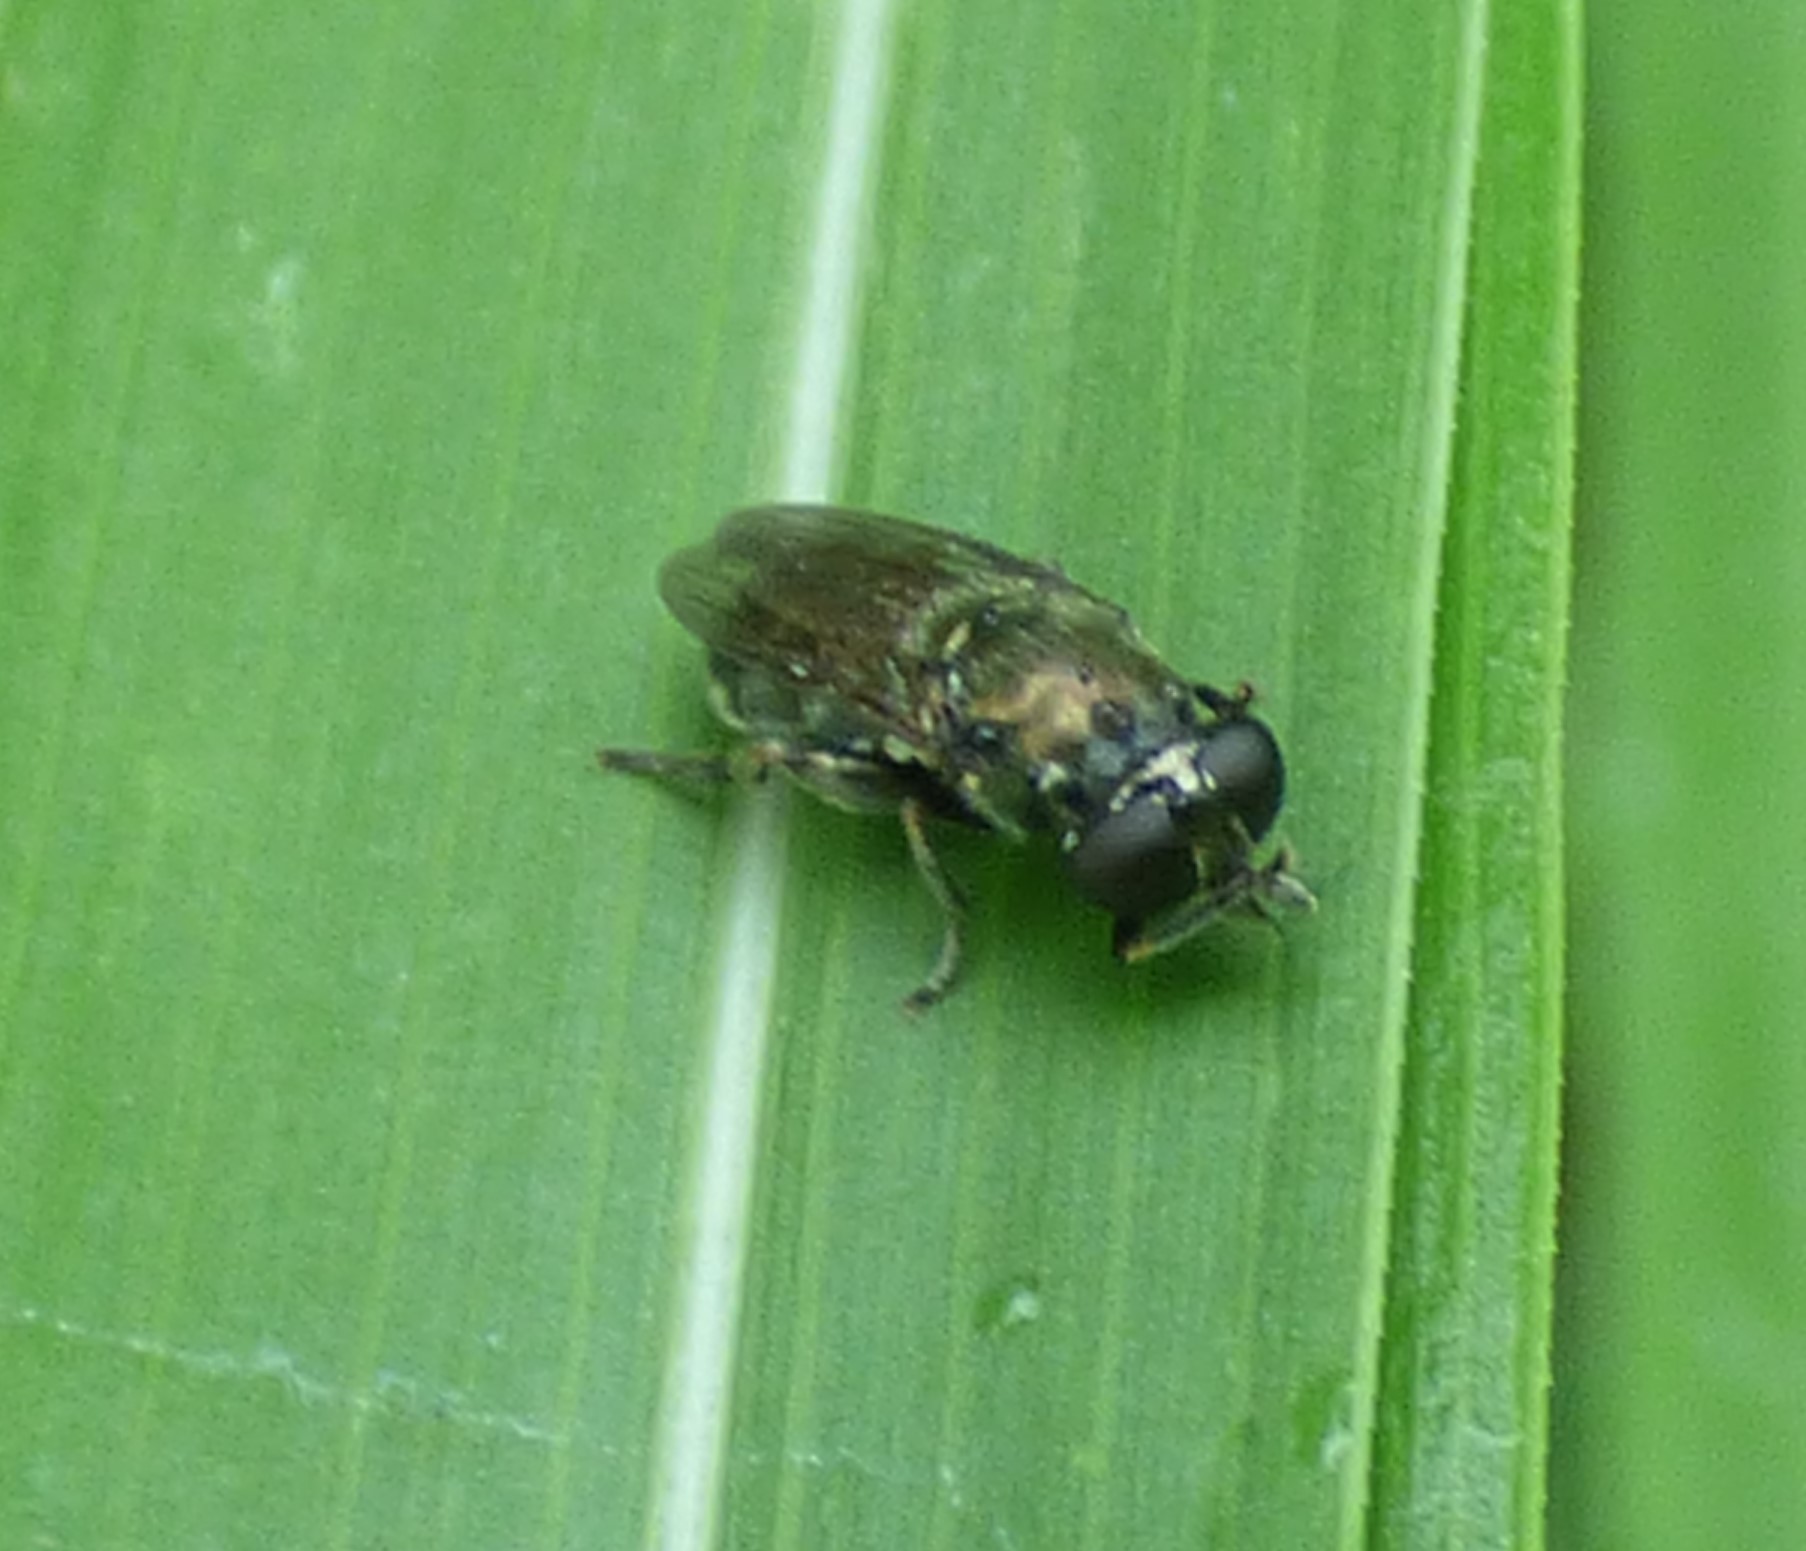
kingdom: Animalia
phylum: Arthropoda
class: Insecta
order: Diptera
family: Syrphidae
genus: Eumerus
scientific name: Eumerus
